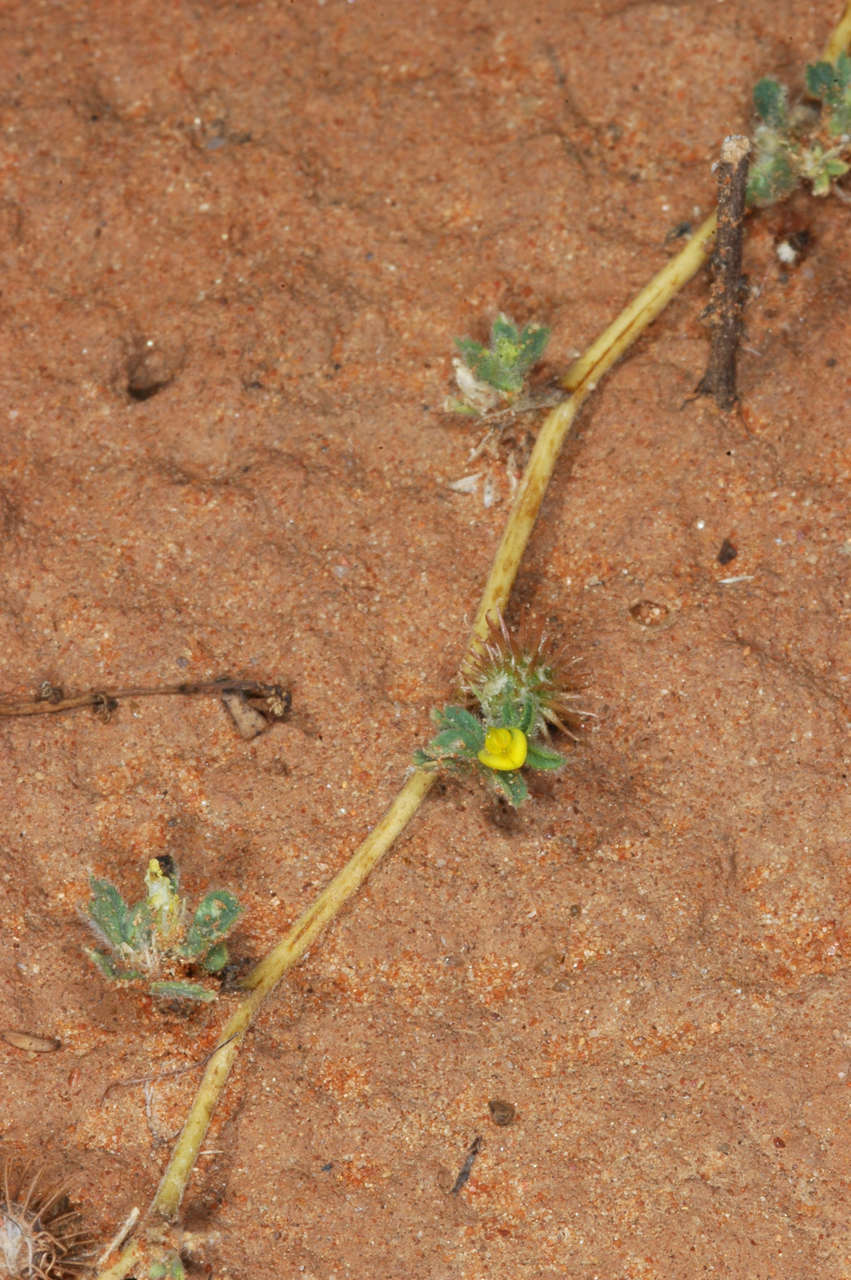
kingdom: Plantae
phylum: Tracheophyta
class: Magnoliopsida
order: Fabales
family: Fabaceae
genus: Medicago
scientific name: Medicago minima
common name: Little bur-clover
